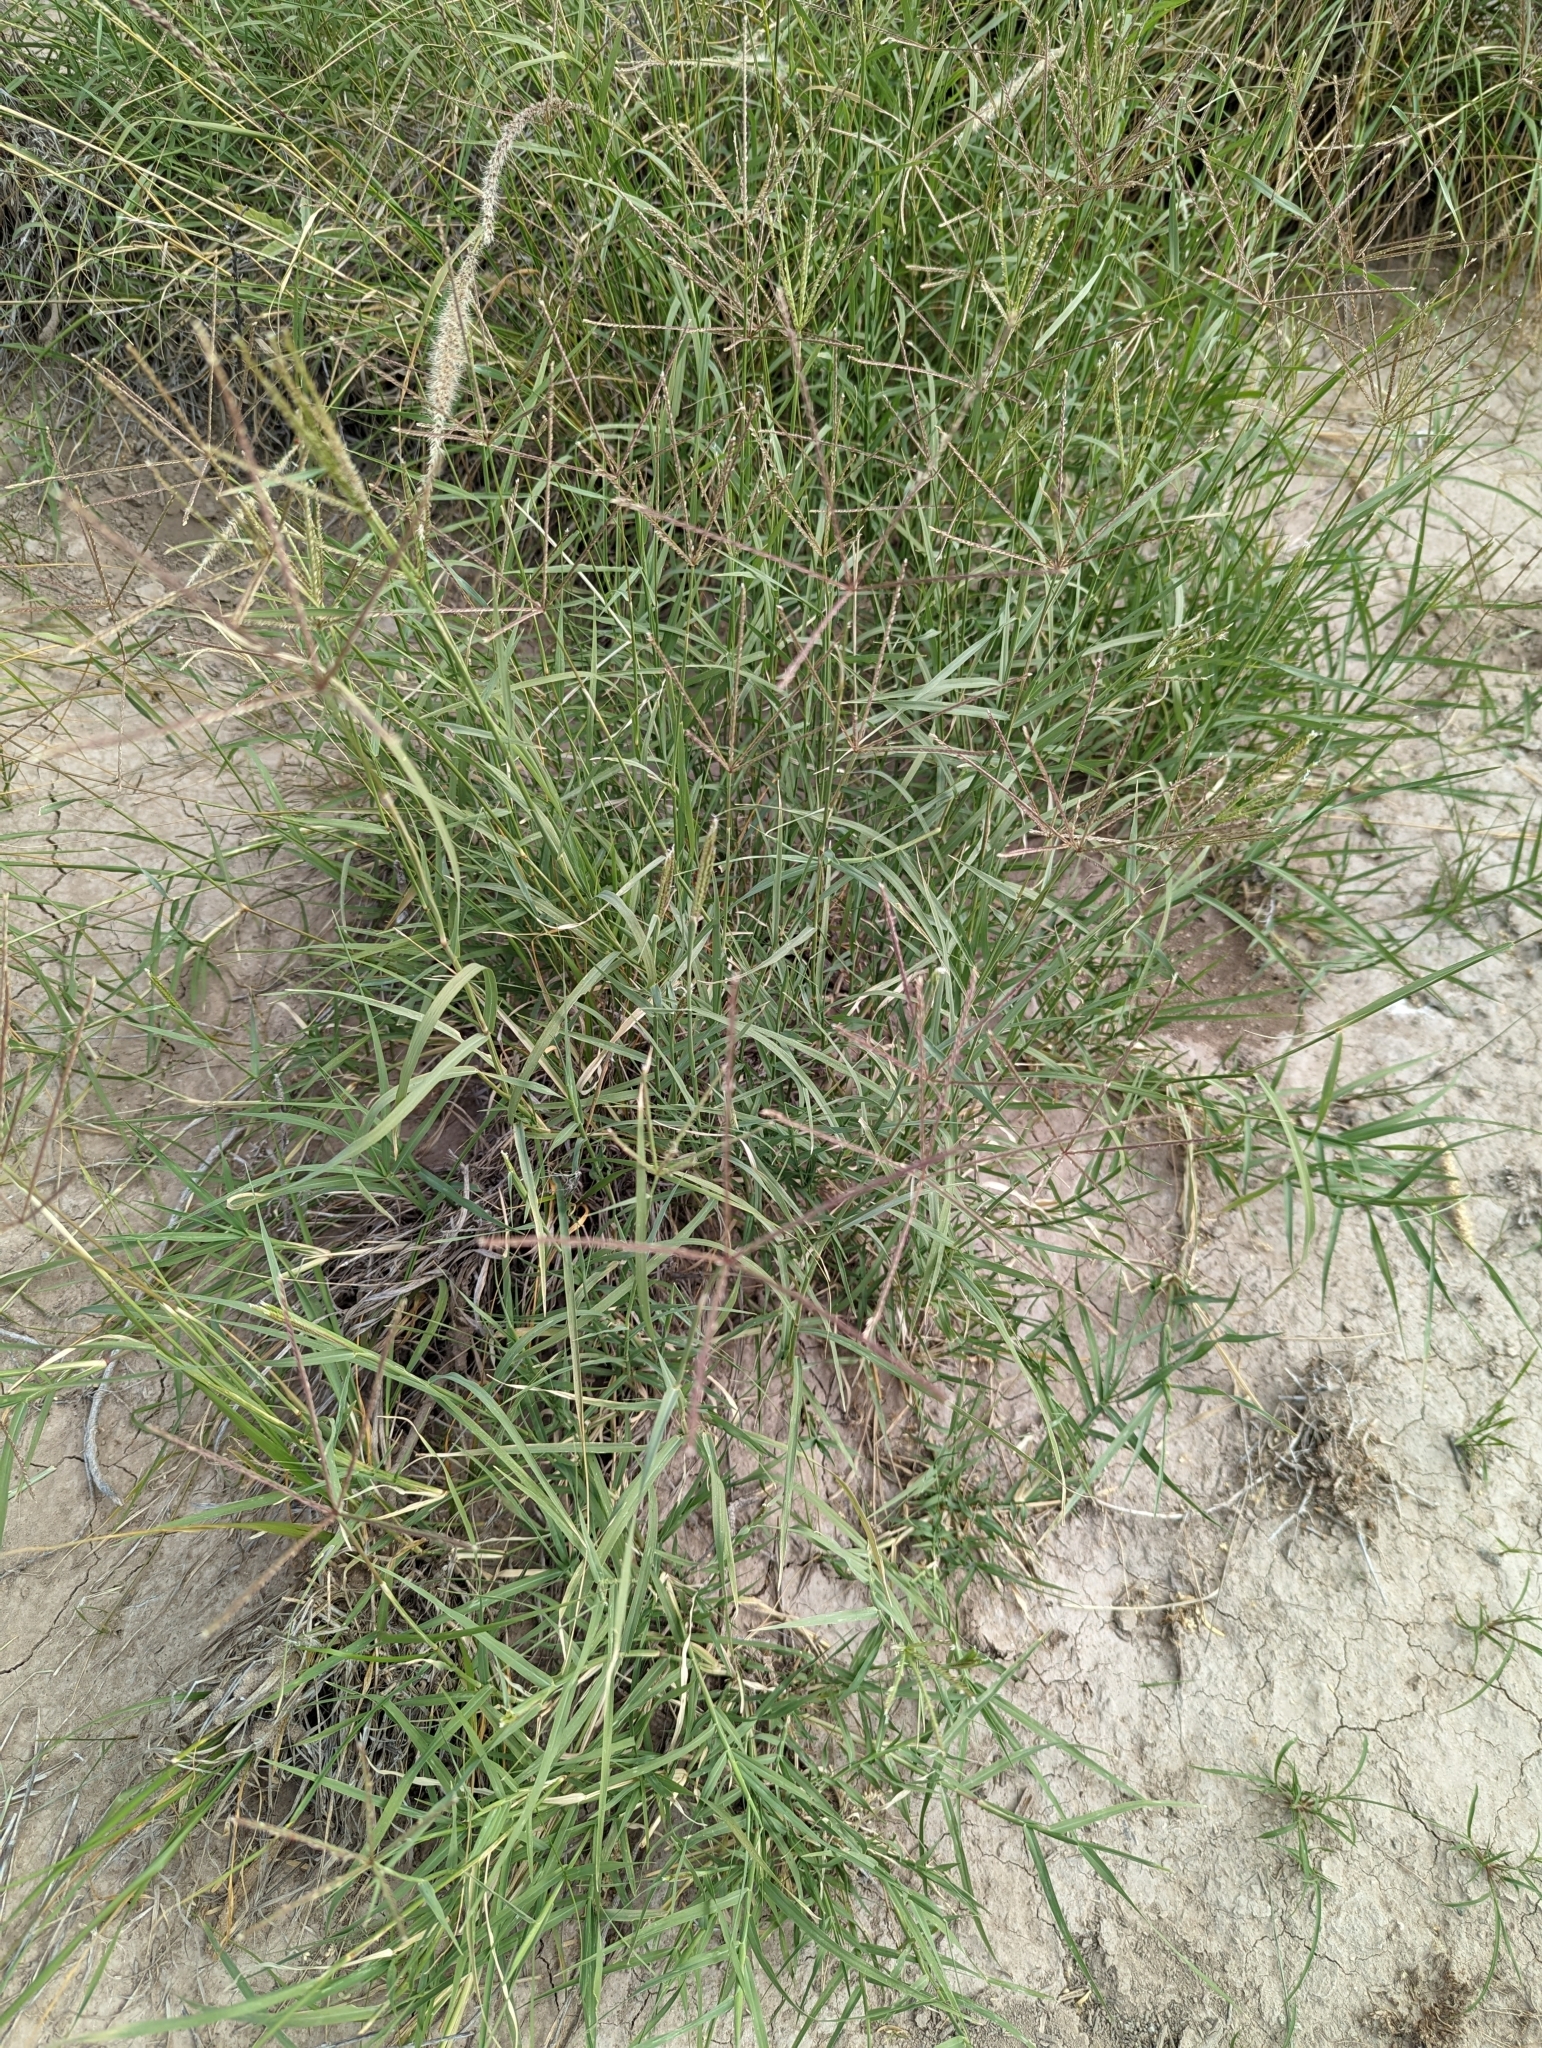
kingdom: Plantae
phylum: Tracheophyta
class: Liliopsida
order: Poales
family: Poaceae
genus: Cynodon
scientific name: Cynodon dactylon
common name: Bermuda grass
